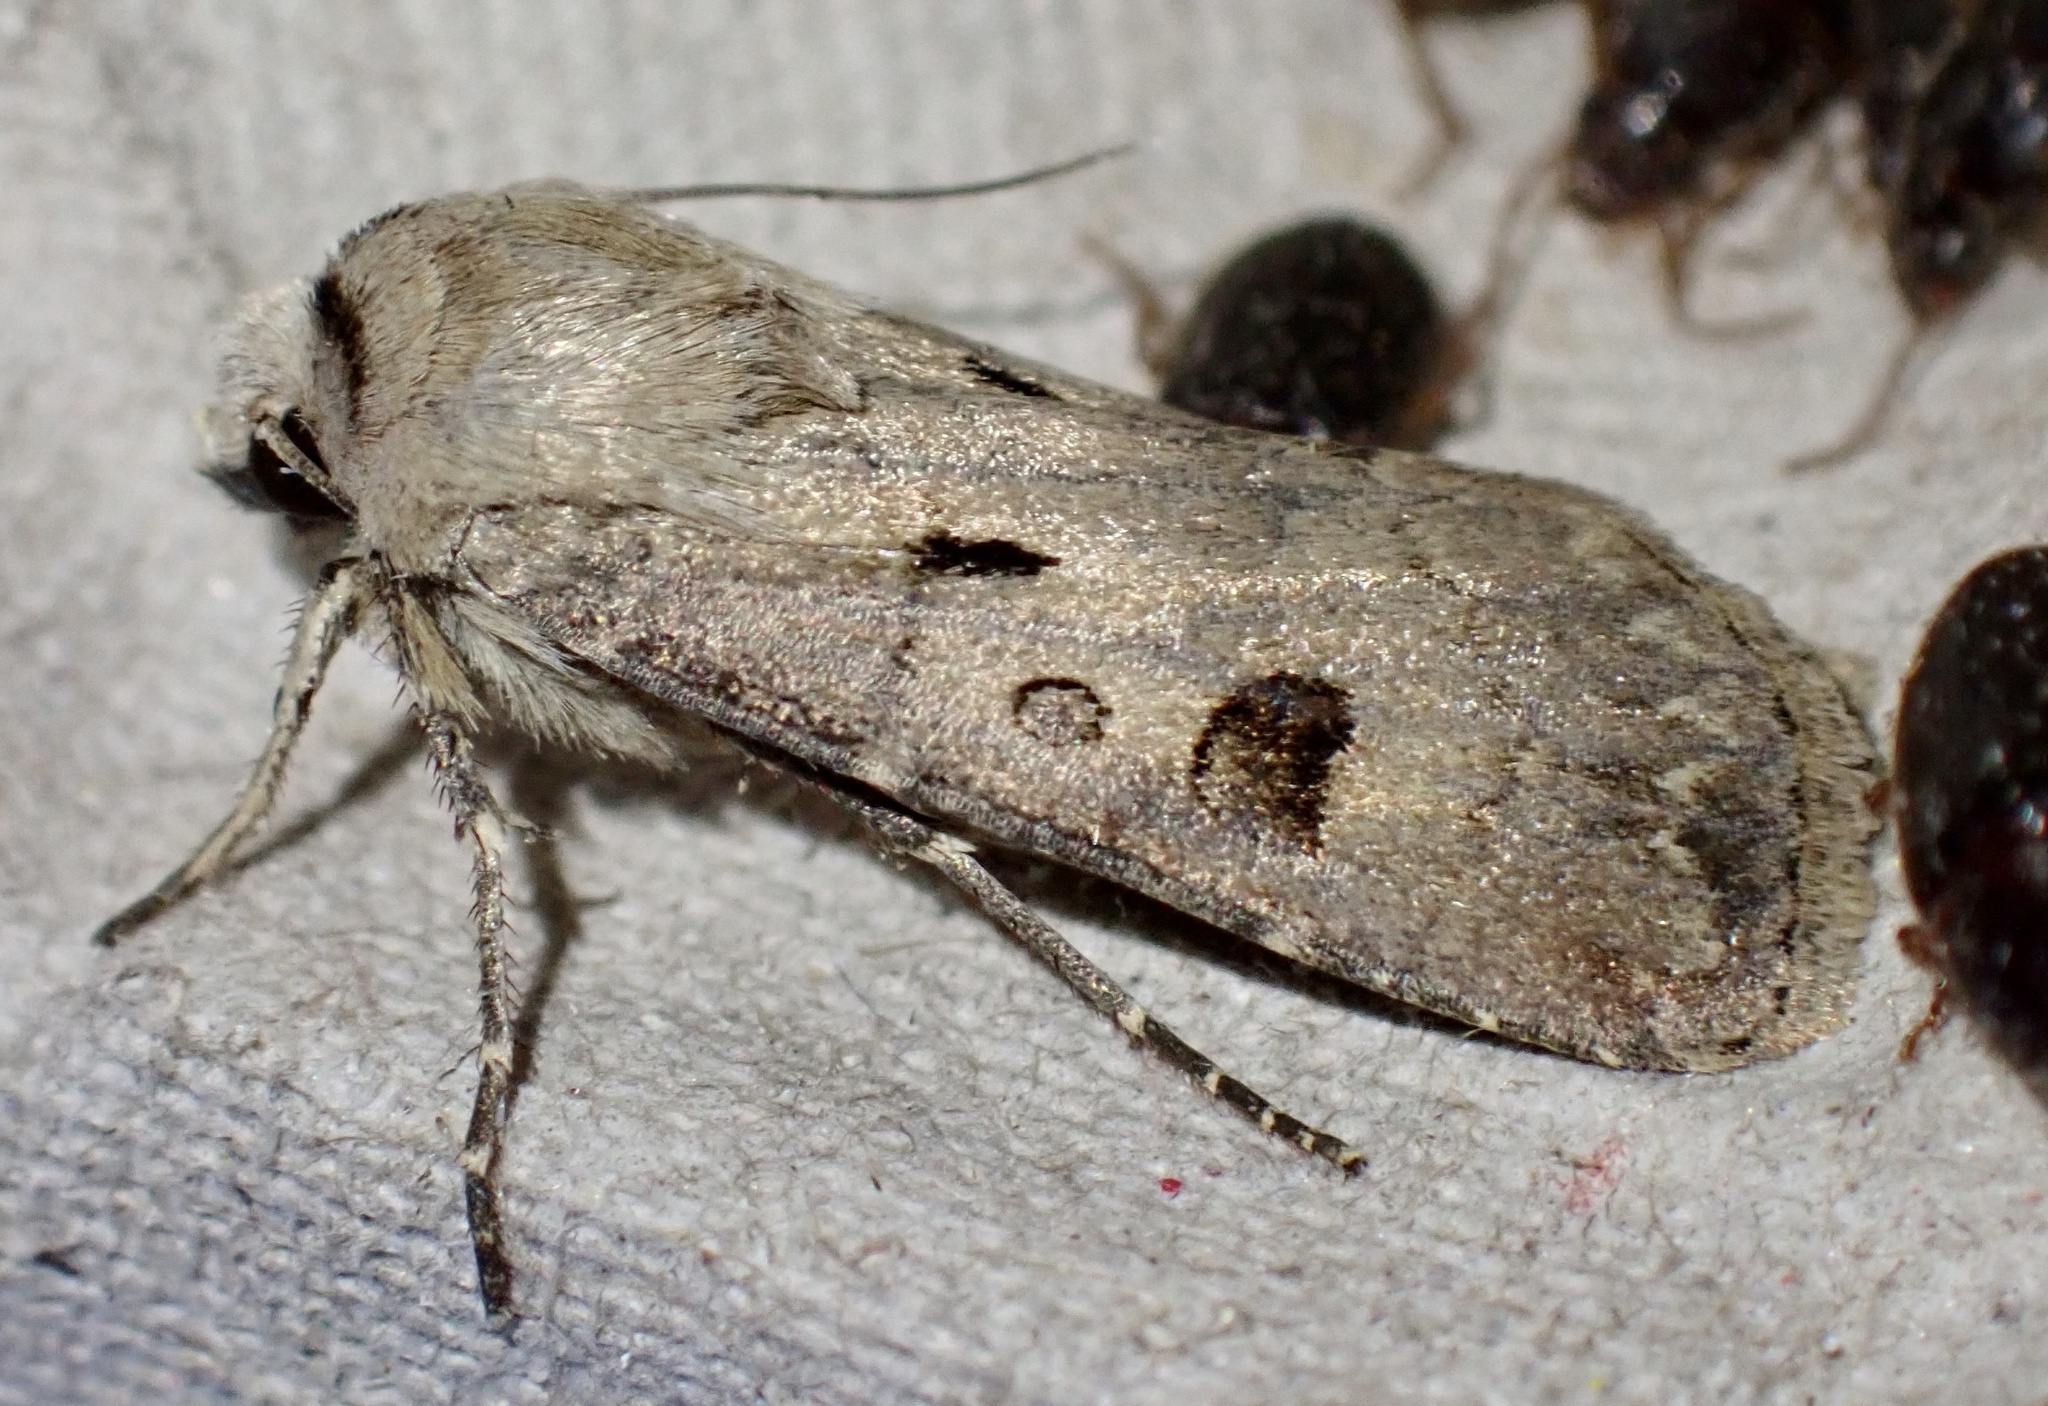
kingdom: Animalia
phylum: Arthropoda
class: Insecta
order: Lepidoptera
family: Noctuidae
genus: Agrotis
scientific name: Agrotis exclamationis
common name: Heart and dart
